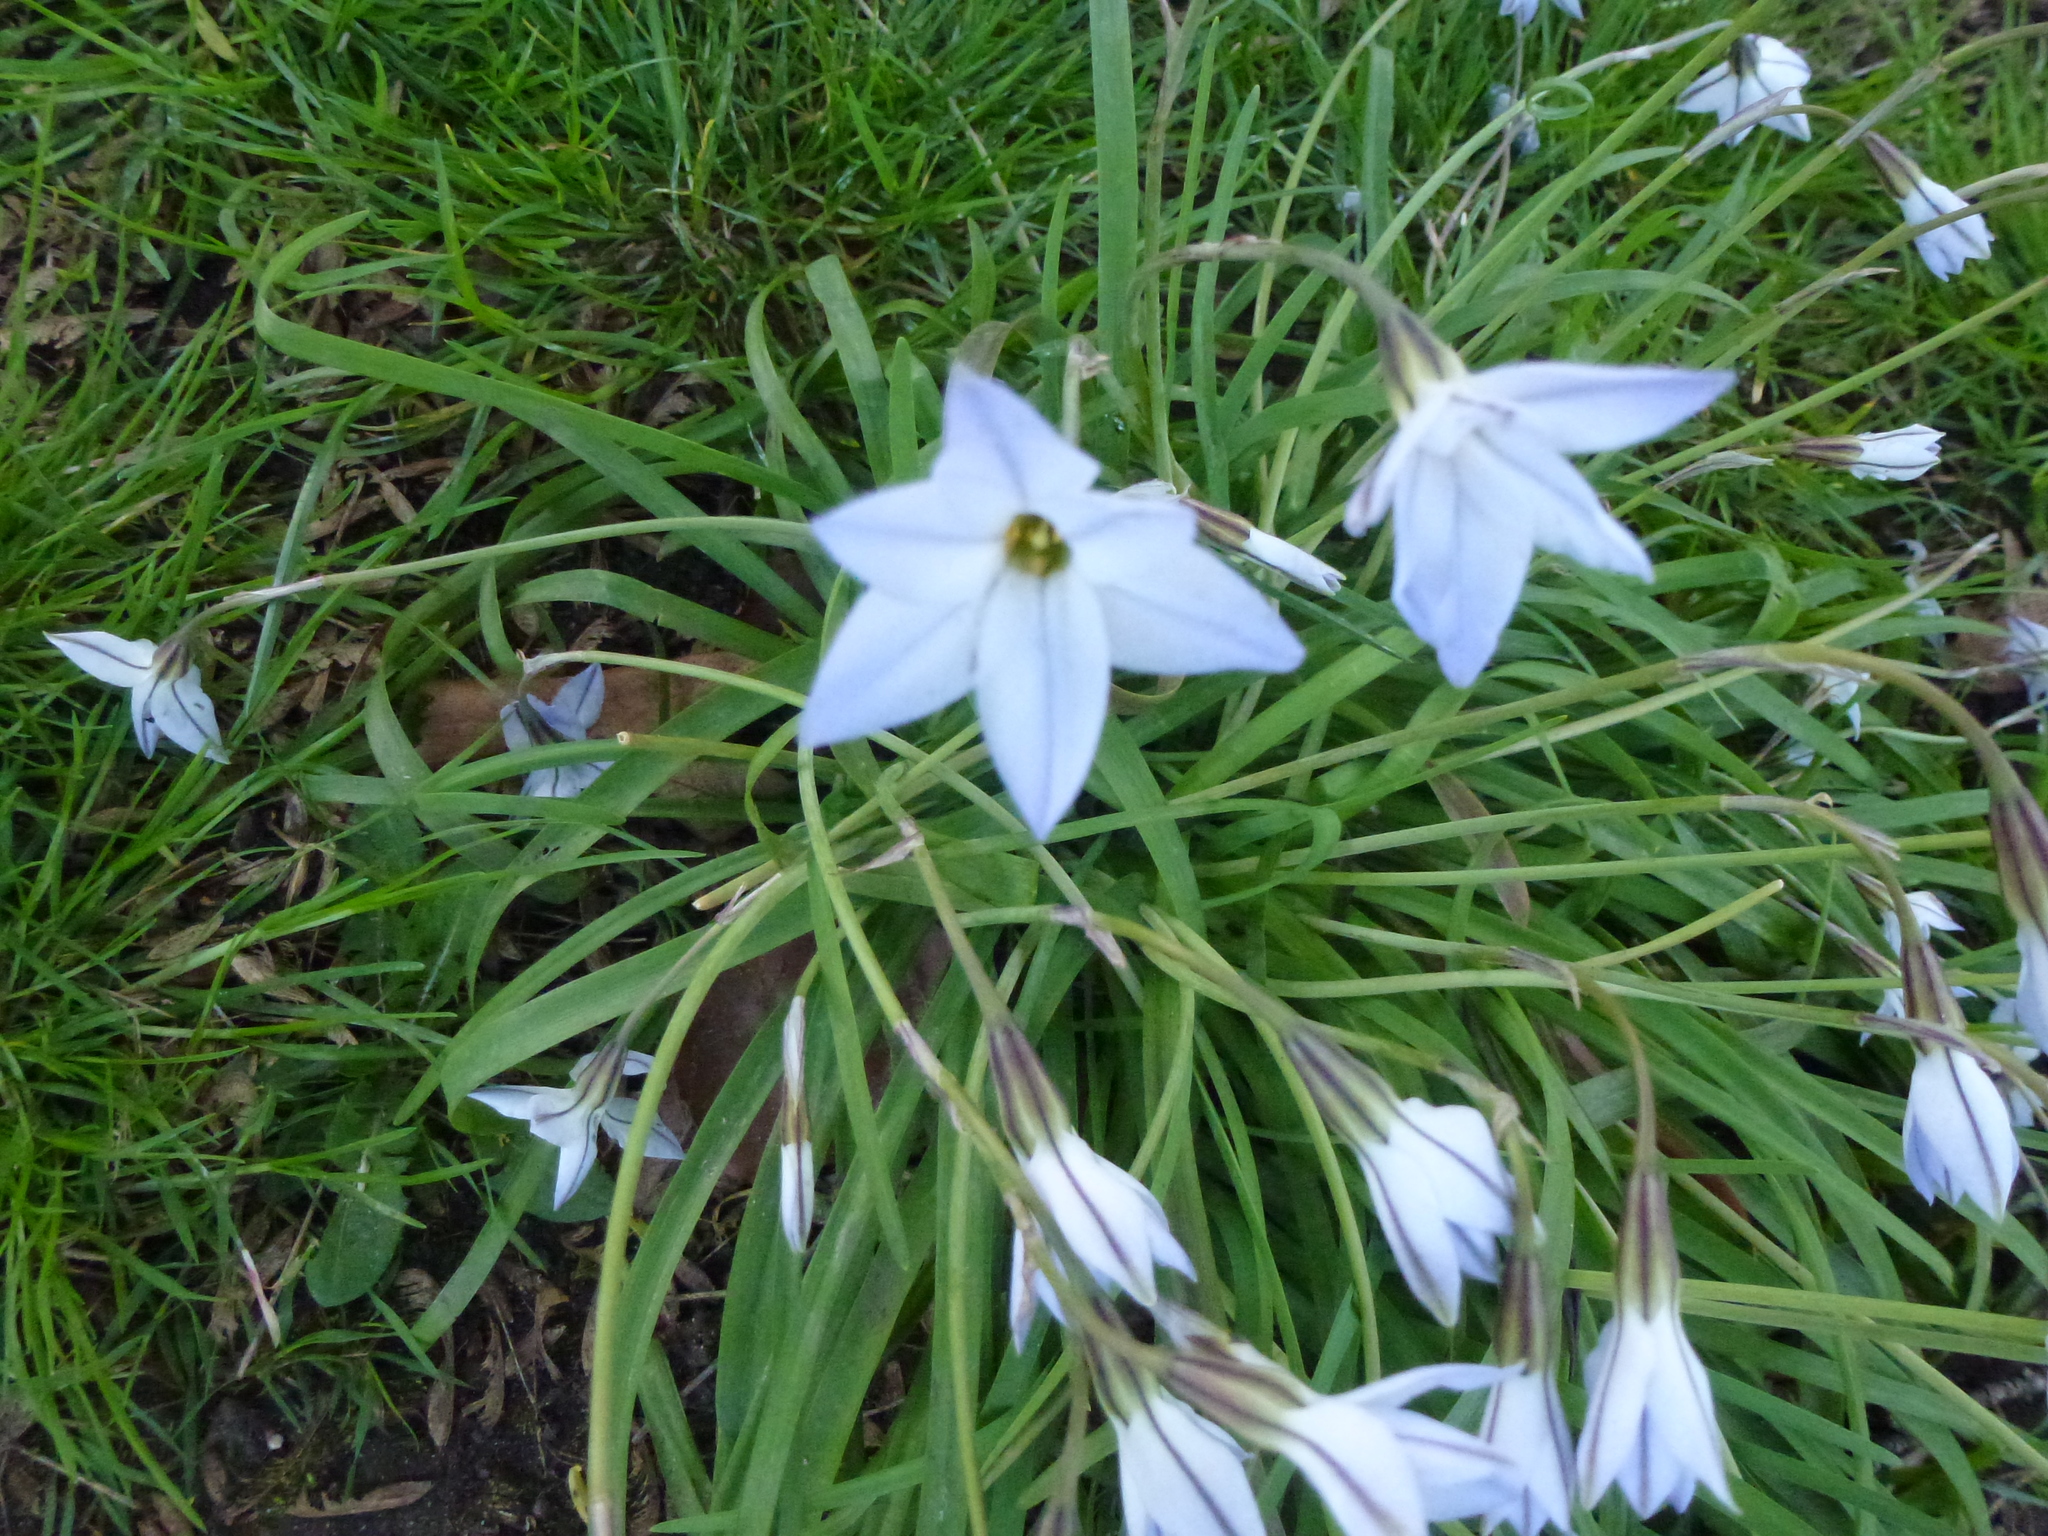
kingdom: Plantae
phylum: Tracheophyta
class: Liliopsida
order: Asparagales
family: Amaryllidaceae
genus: Ipheion
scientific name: Ipheion uniflorum
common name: Spring starflower
